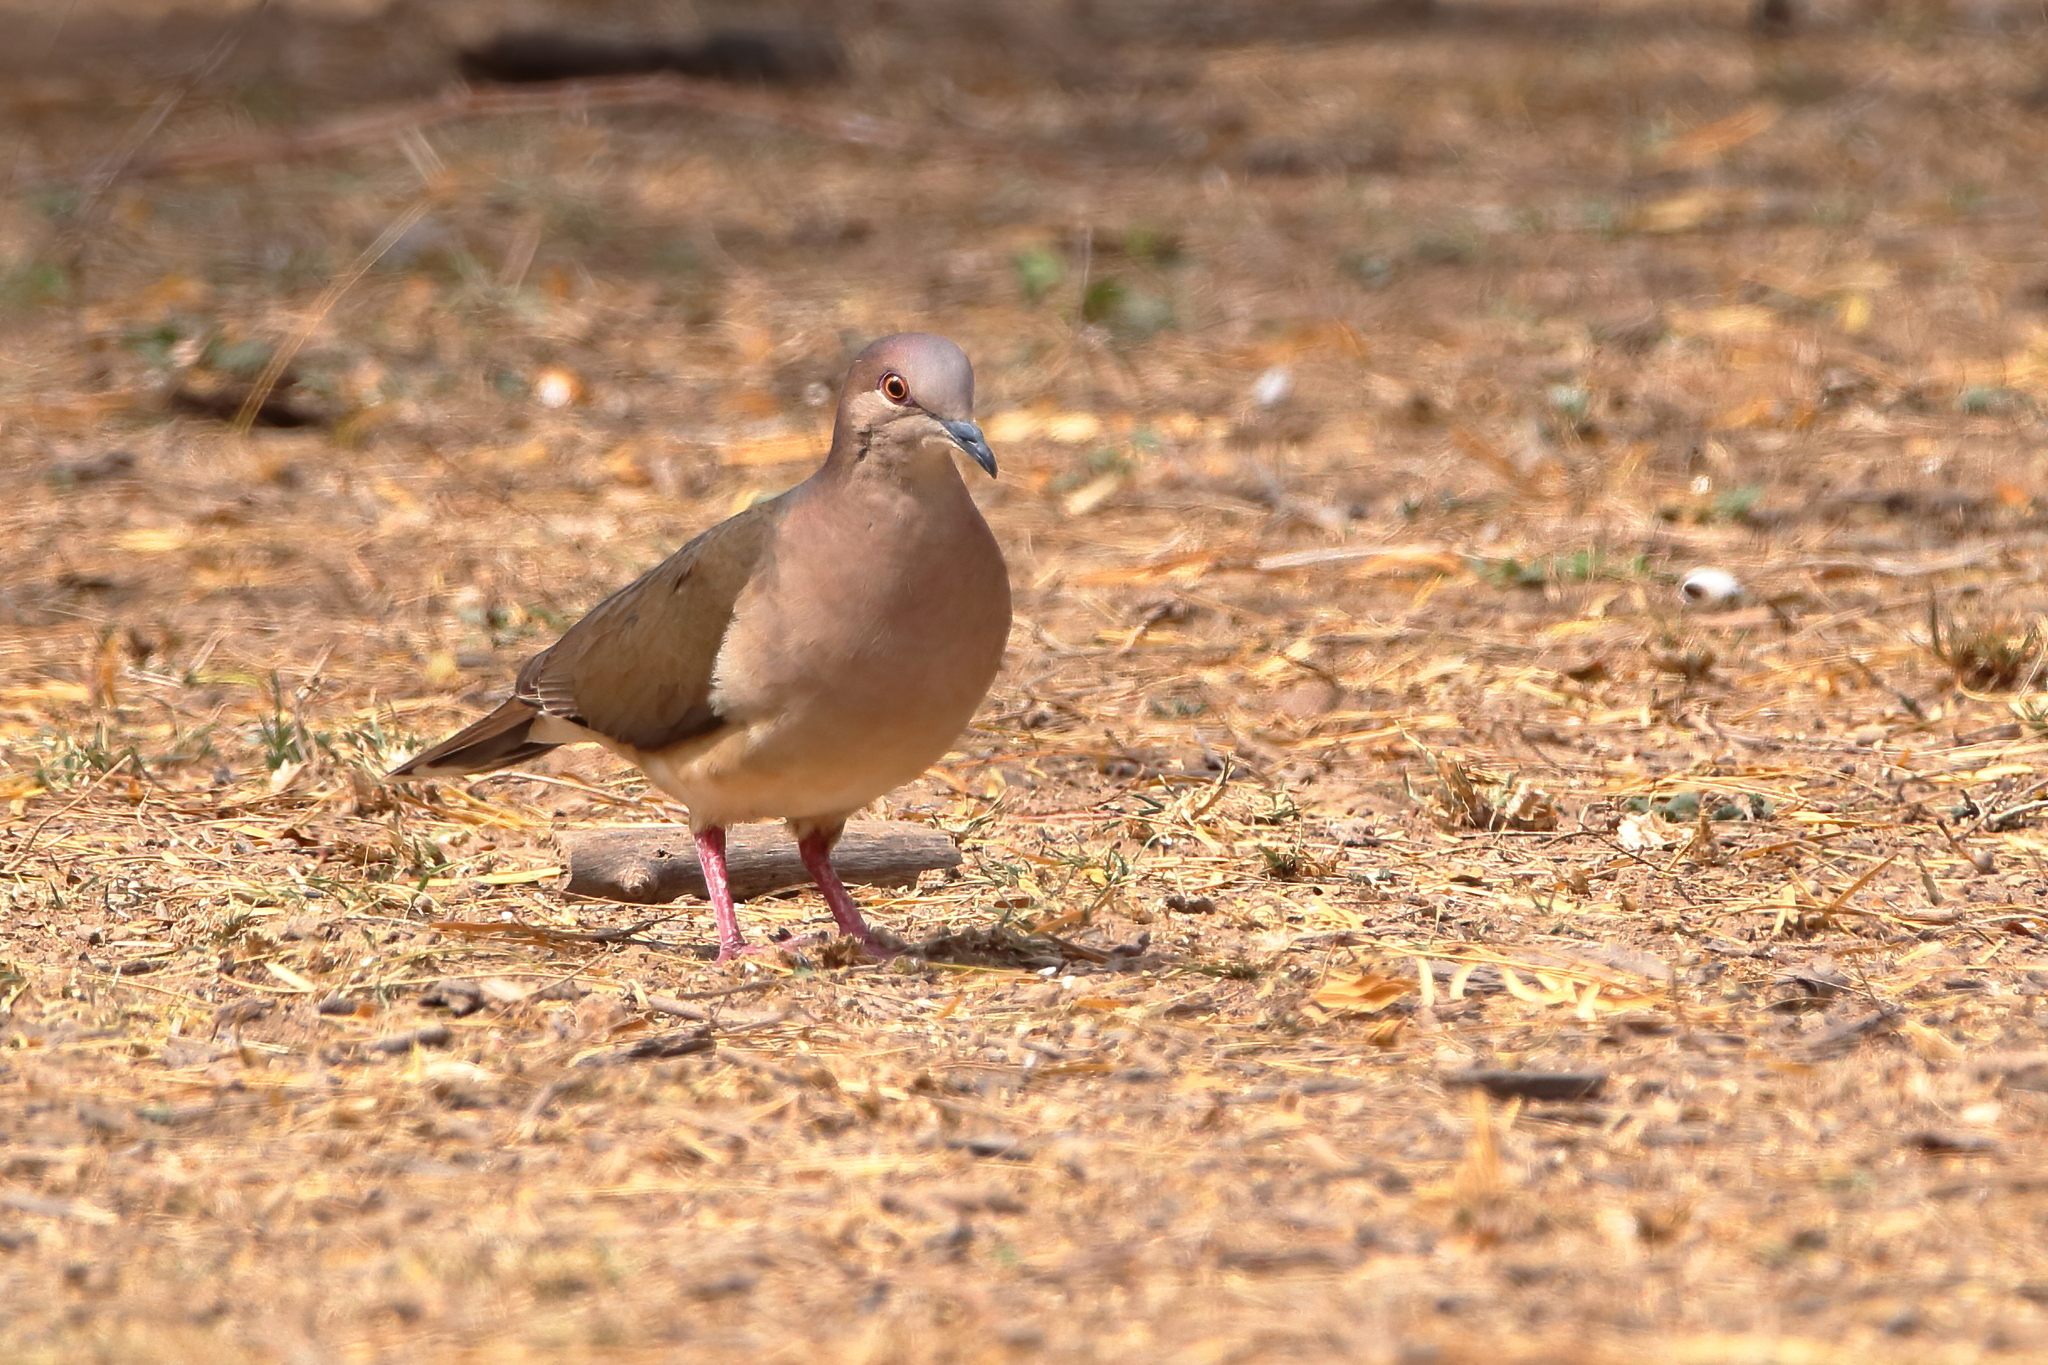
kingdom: Animalia
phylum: Chordata
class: Aves
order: Columbiformes
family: Columbidae
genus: Leptotila
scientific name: Leptotila verreauxi
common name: White-tipped dove
